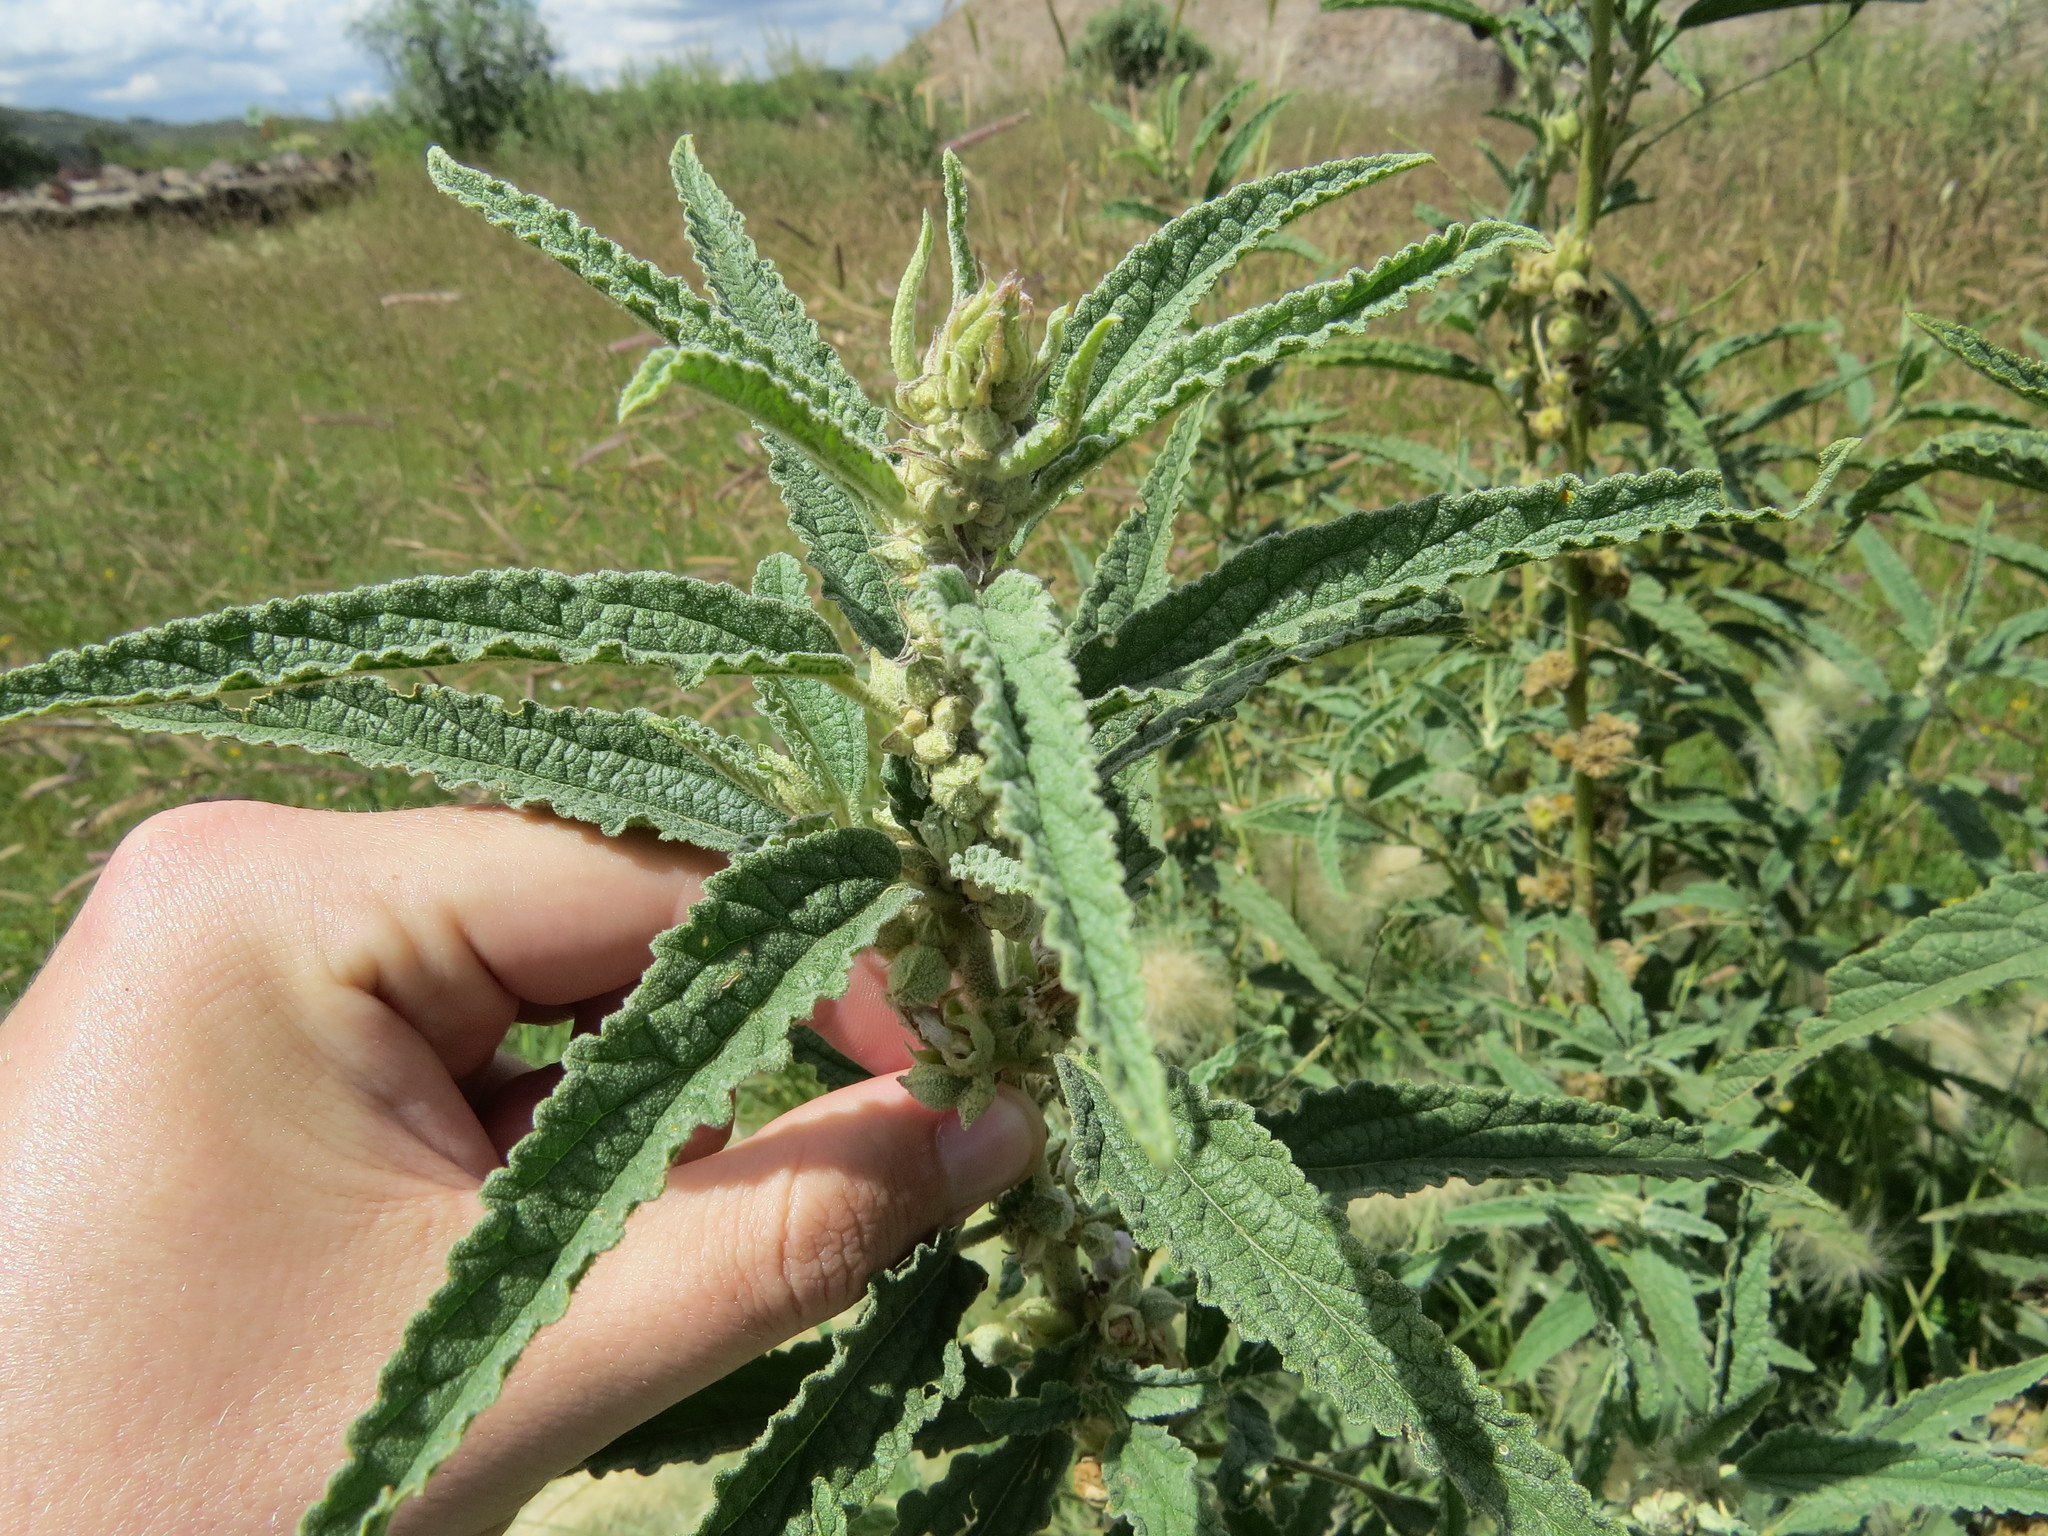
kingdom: Plantae
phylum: Tracheophyta
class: Magnoliopsida
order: Malvales
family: Malvaceae
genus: Sphaeralcea
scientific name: Sphaeralcea angustifolia
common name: Copper globe-mallow
